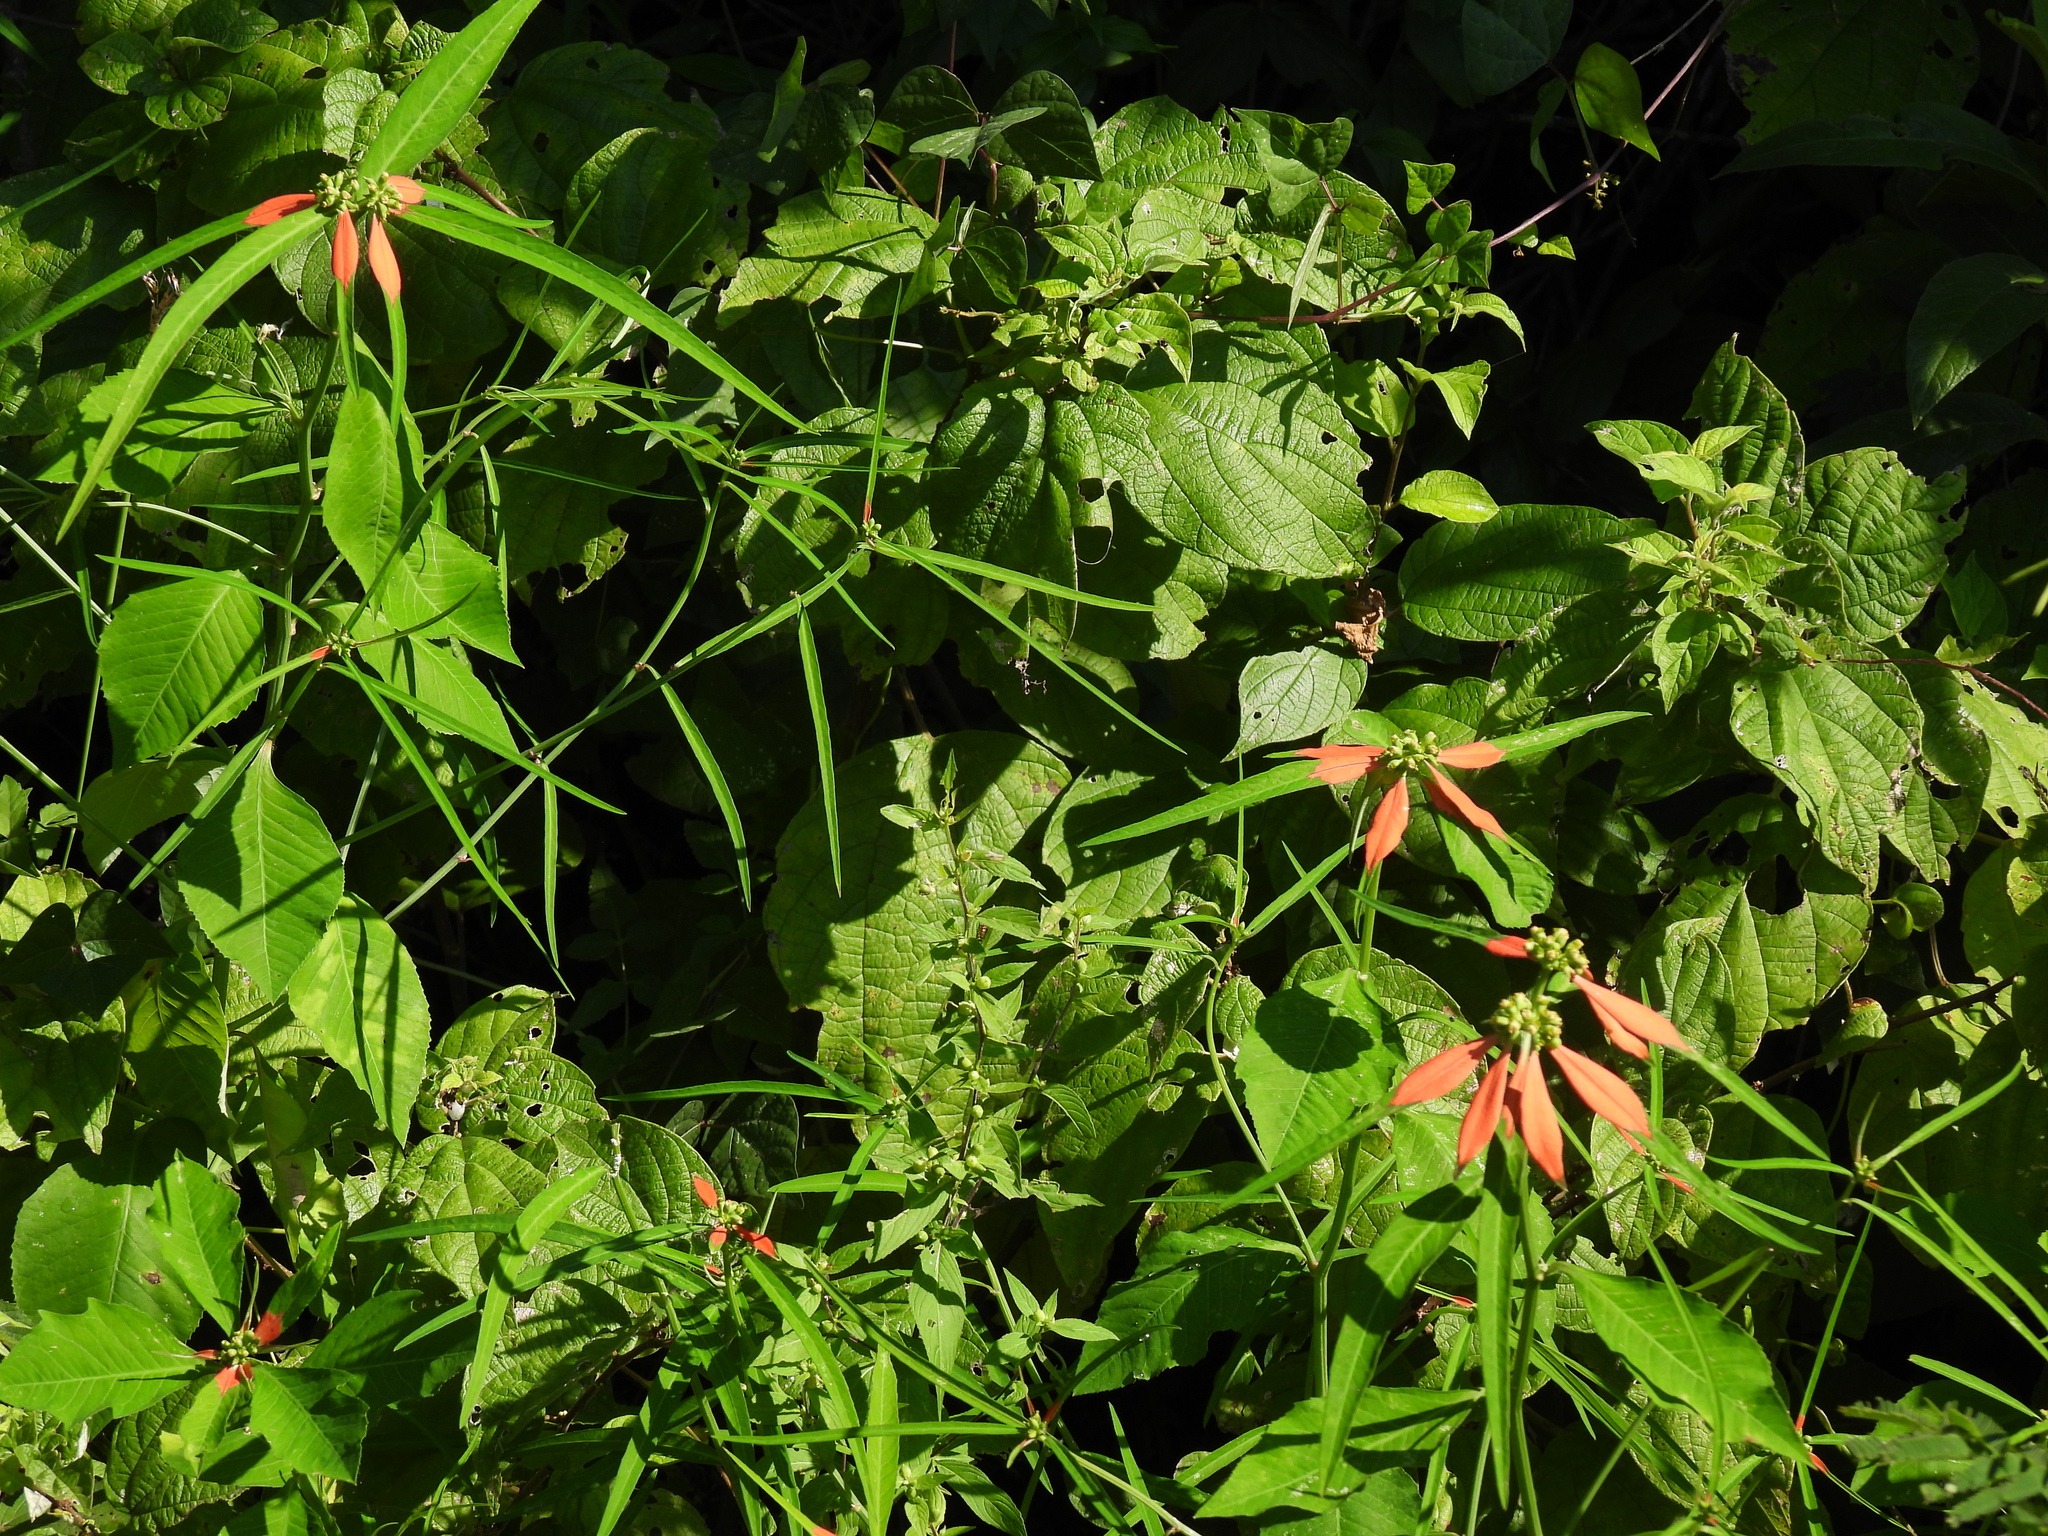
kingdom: Plantae
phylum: Tracheophyta
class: Magnoliopsida
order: Malpighiales
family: Euphorbiaceae
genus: Euphorbia
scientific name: Euphorbia heterophylla
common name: Mexican fireplant
